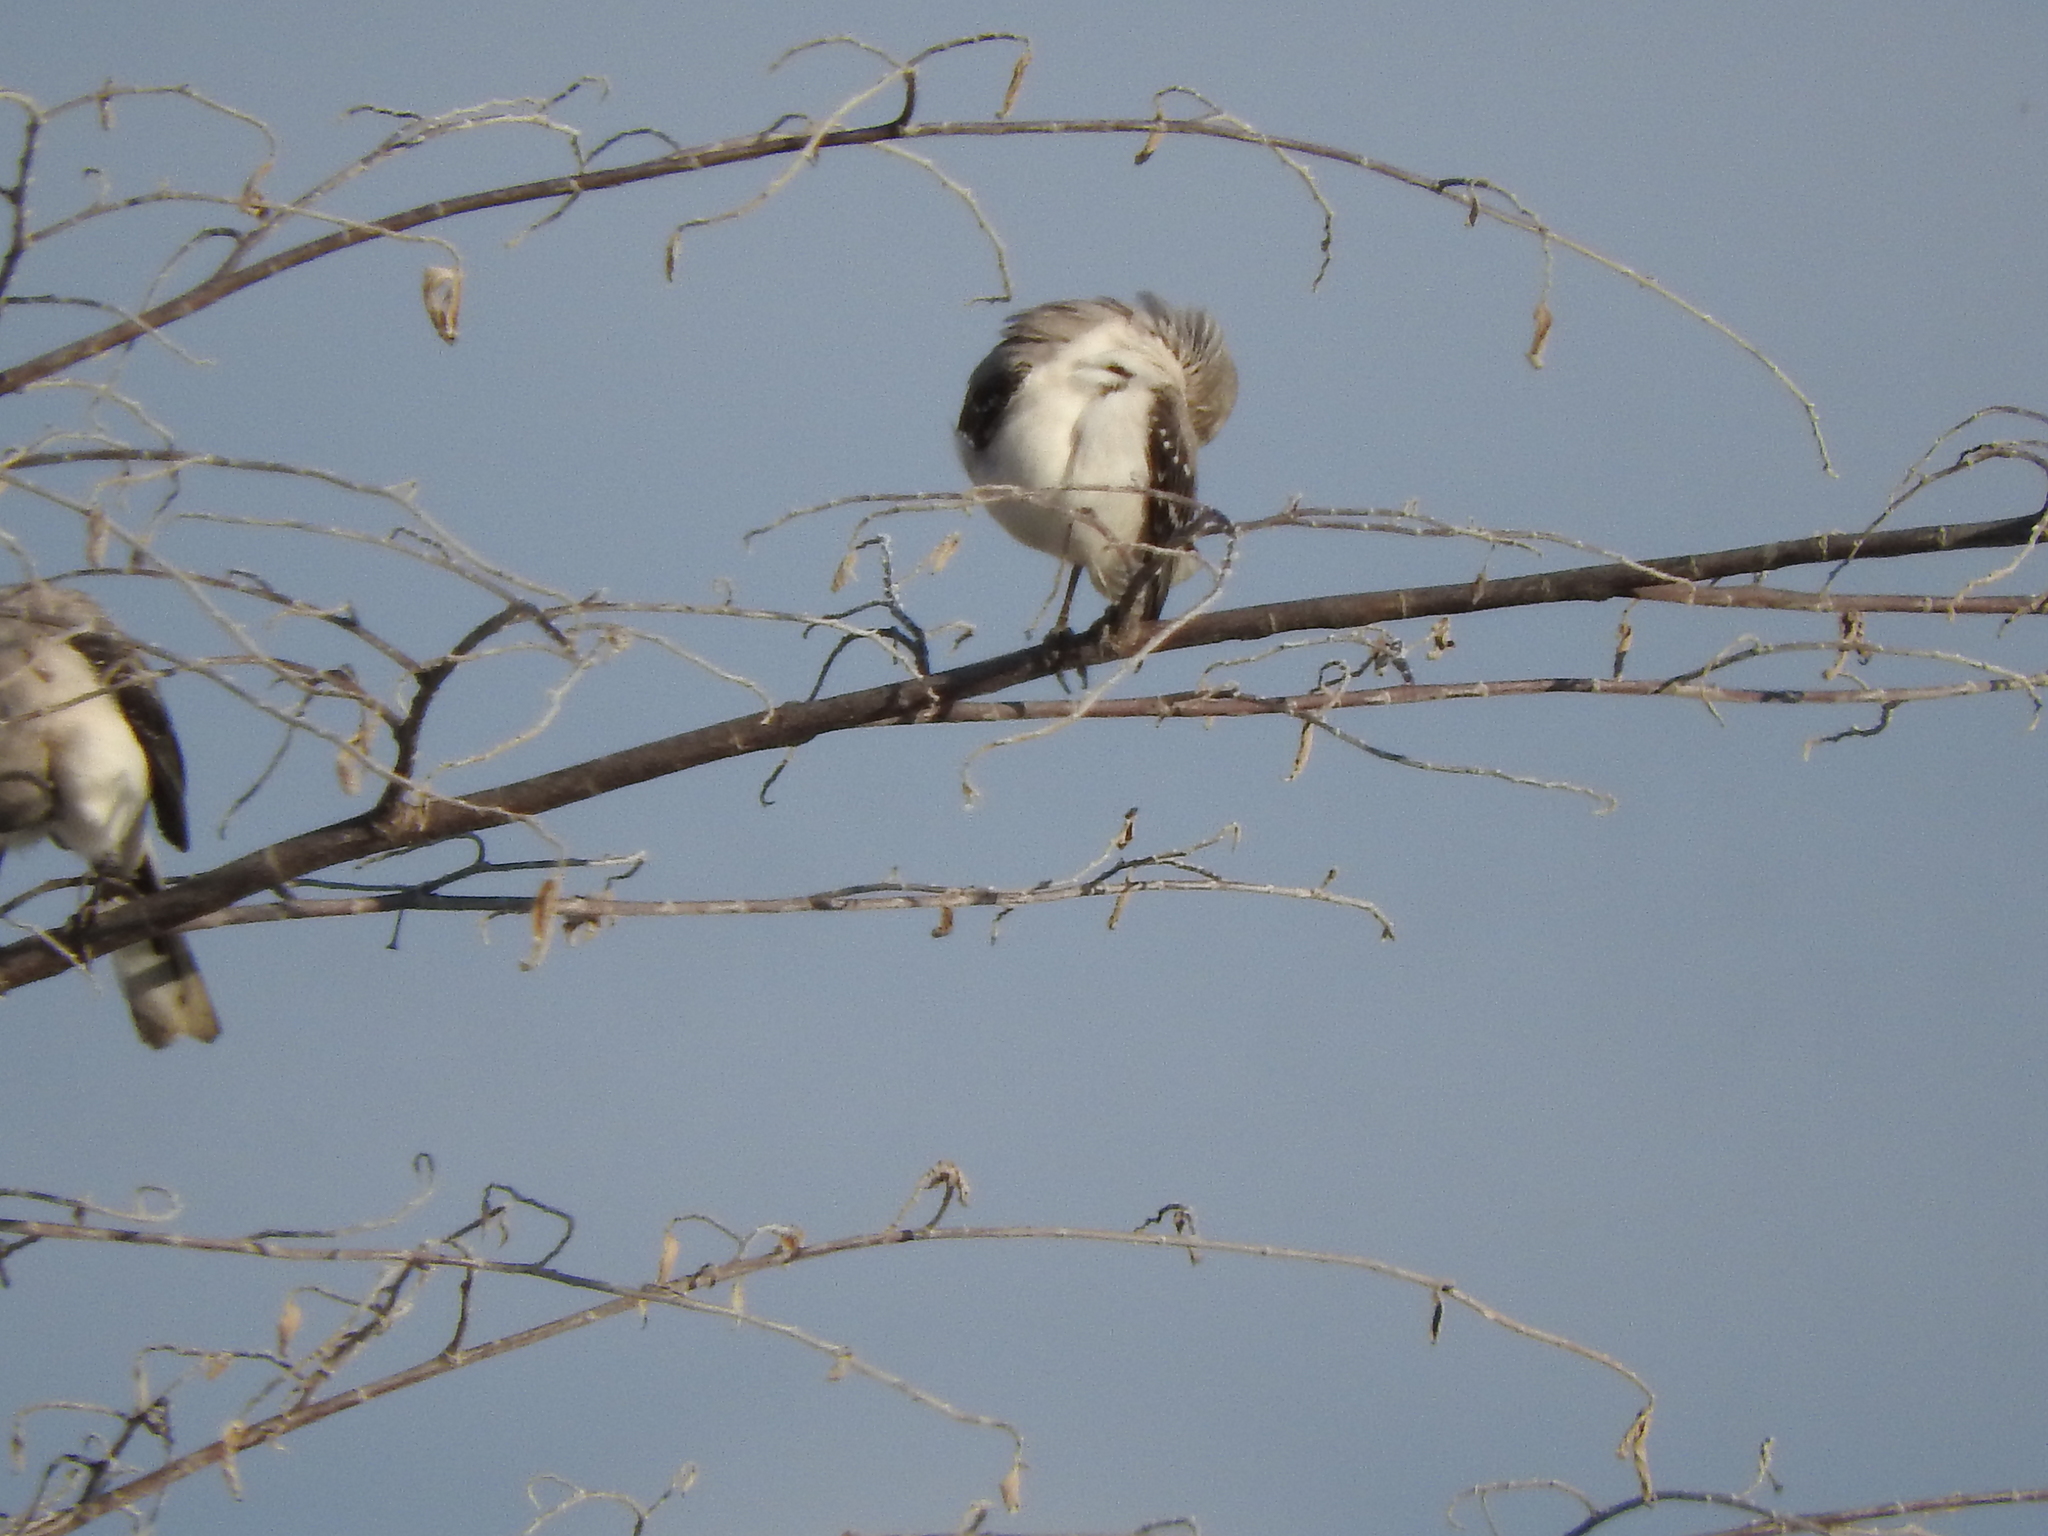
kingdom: Animalia
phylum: Chordata
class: Aves
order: Passeriformes
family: Mimidae
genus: Mimus
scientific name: Mimus gilvus
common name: Tropical mockingbird
